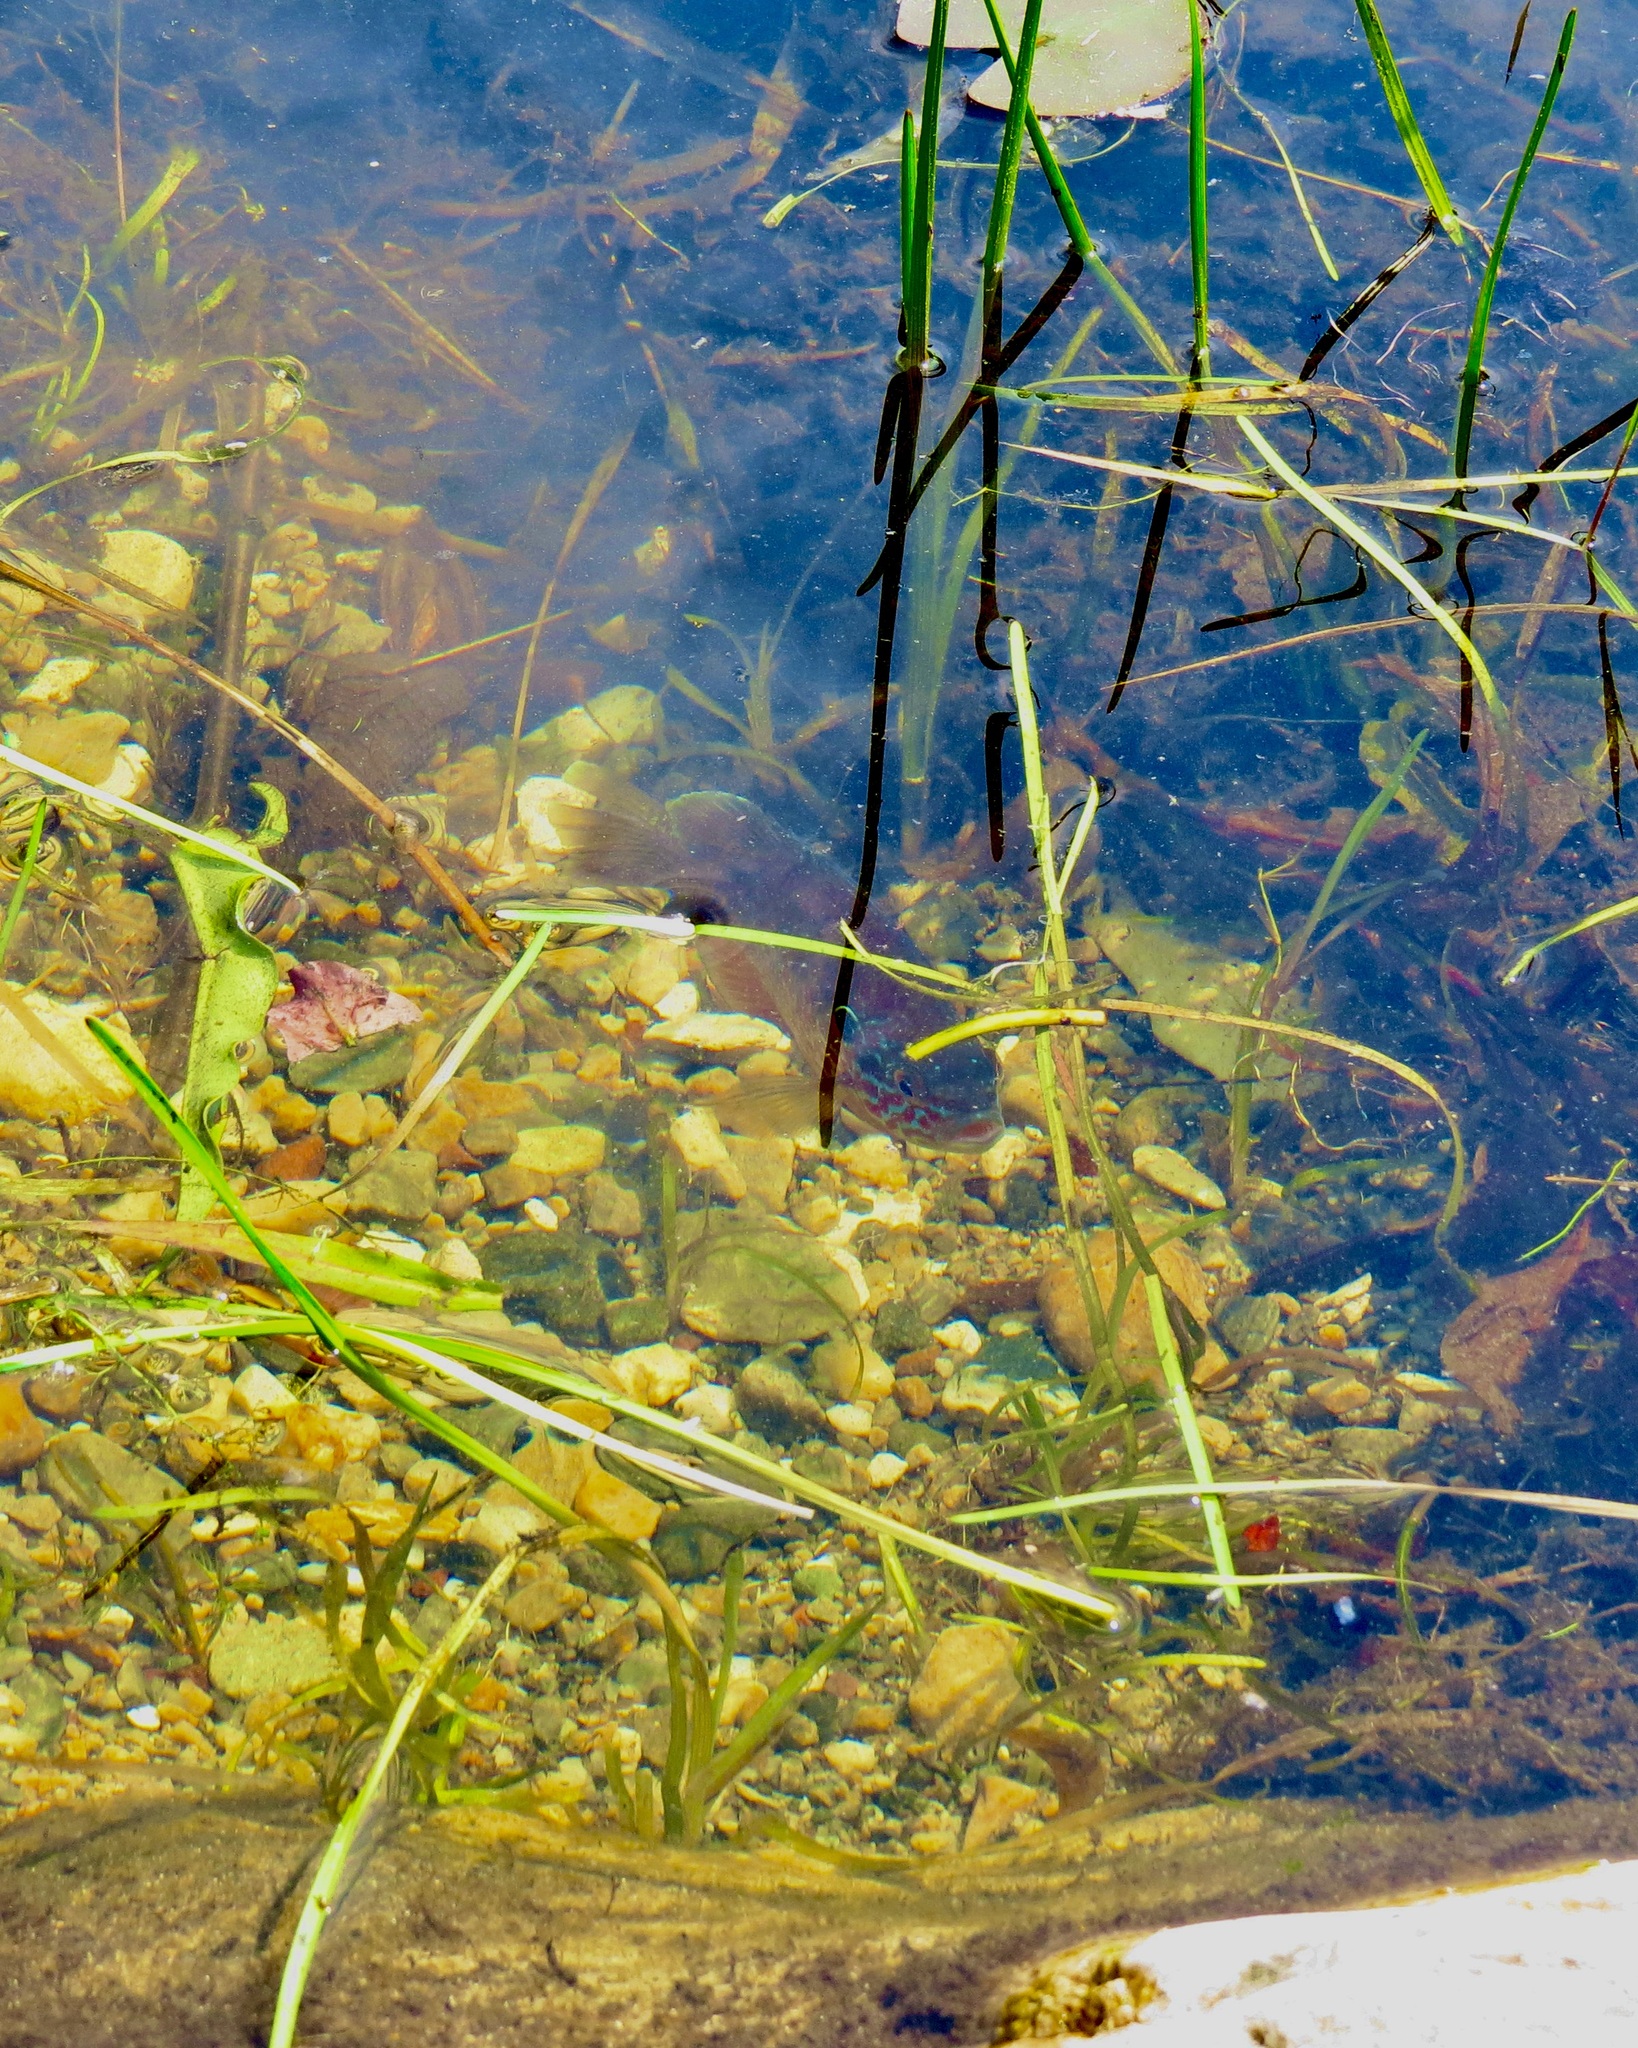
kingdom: Animalia
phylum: Chordata
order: Perciformes
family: Centrarchidae
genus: Lepomis
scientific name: Lepomis gibbosus
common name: Pumpkinseed
